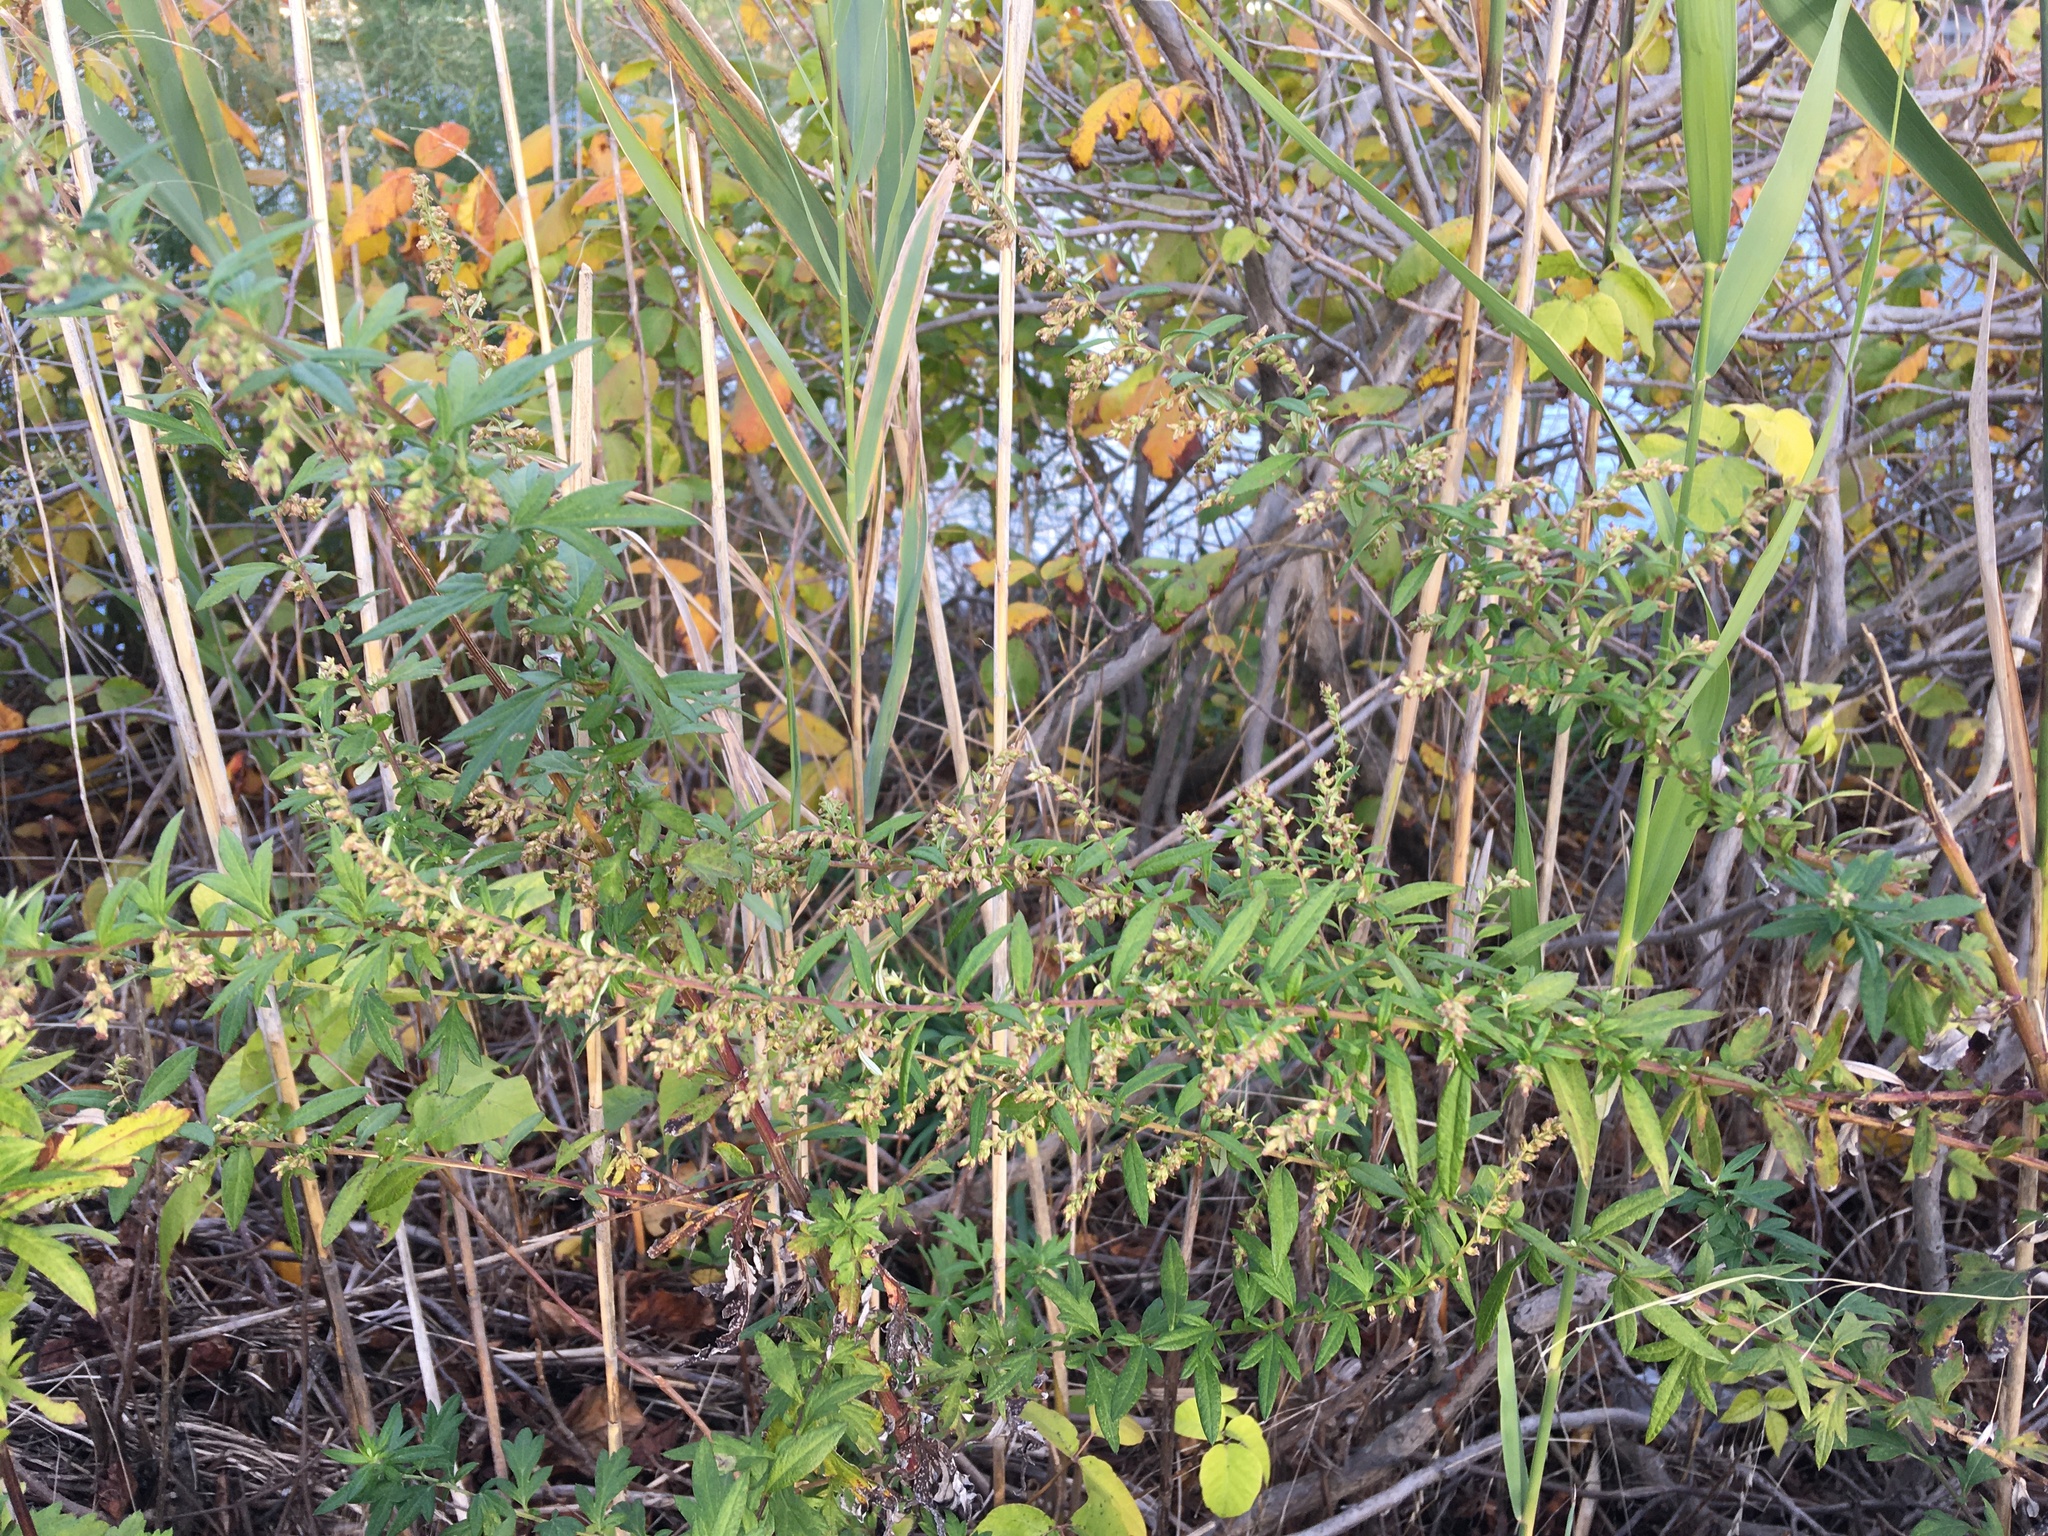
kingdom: Plantae
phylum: Tracheophyta
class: Magnoliopsida
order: Asterales
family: Asteraceae
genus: Artemisia
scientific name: Artemisia vulgaris
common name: Mugwort
